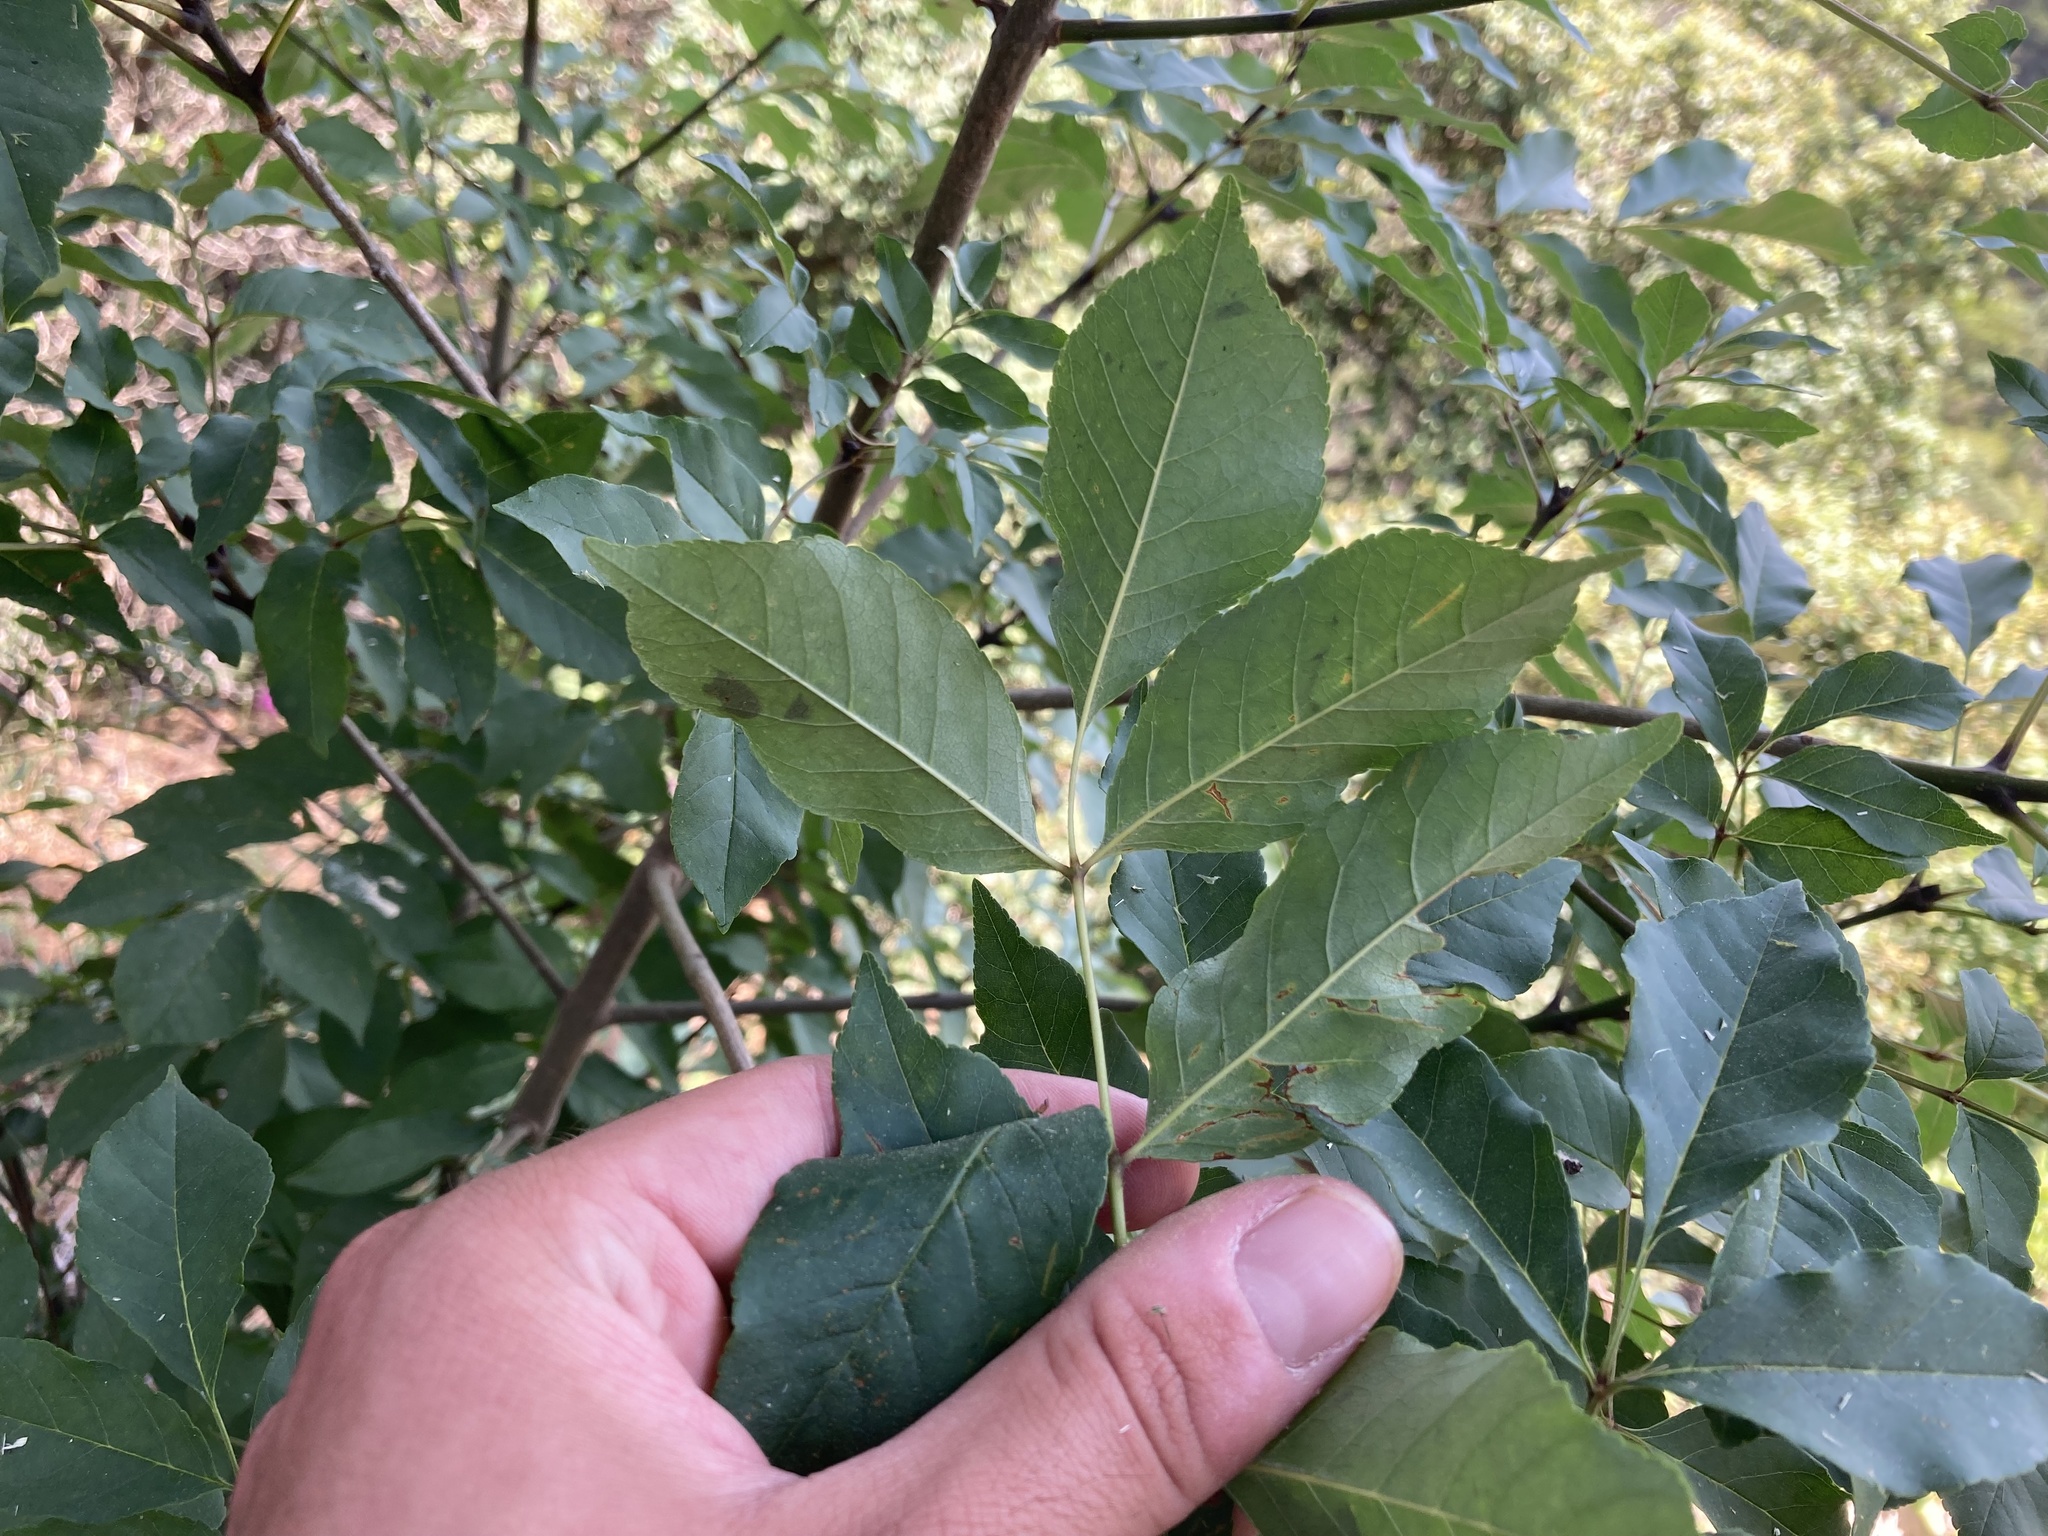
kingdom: Plantae
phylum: Tracheophyta
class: Magnoliopsida
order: Lamiales
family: Oleaceae
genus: Fraxinus
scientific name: Fraxinus ornus
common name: Manna ash
